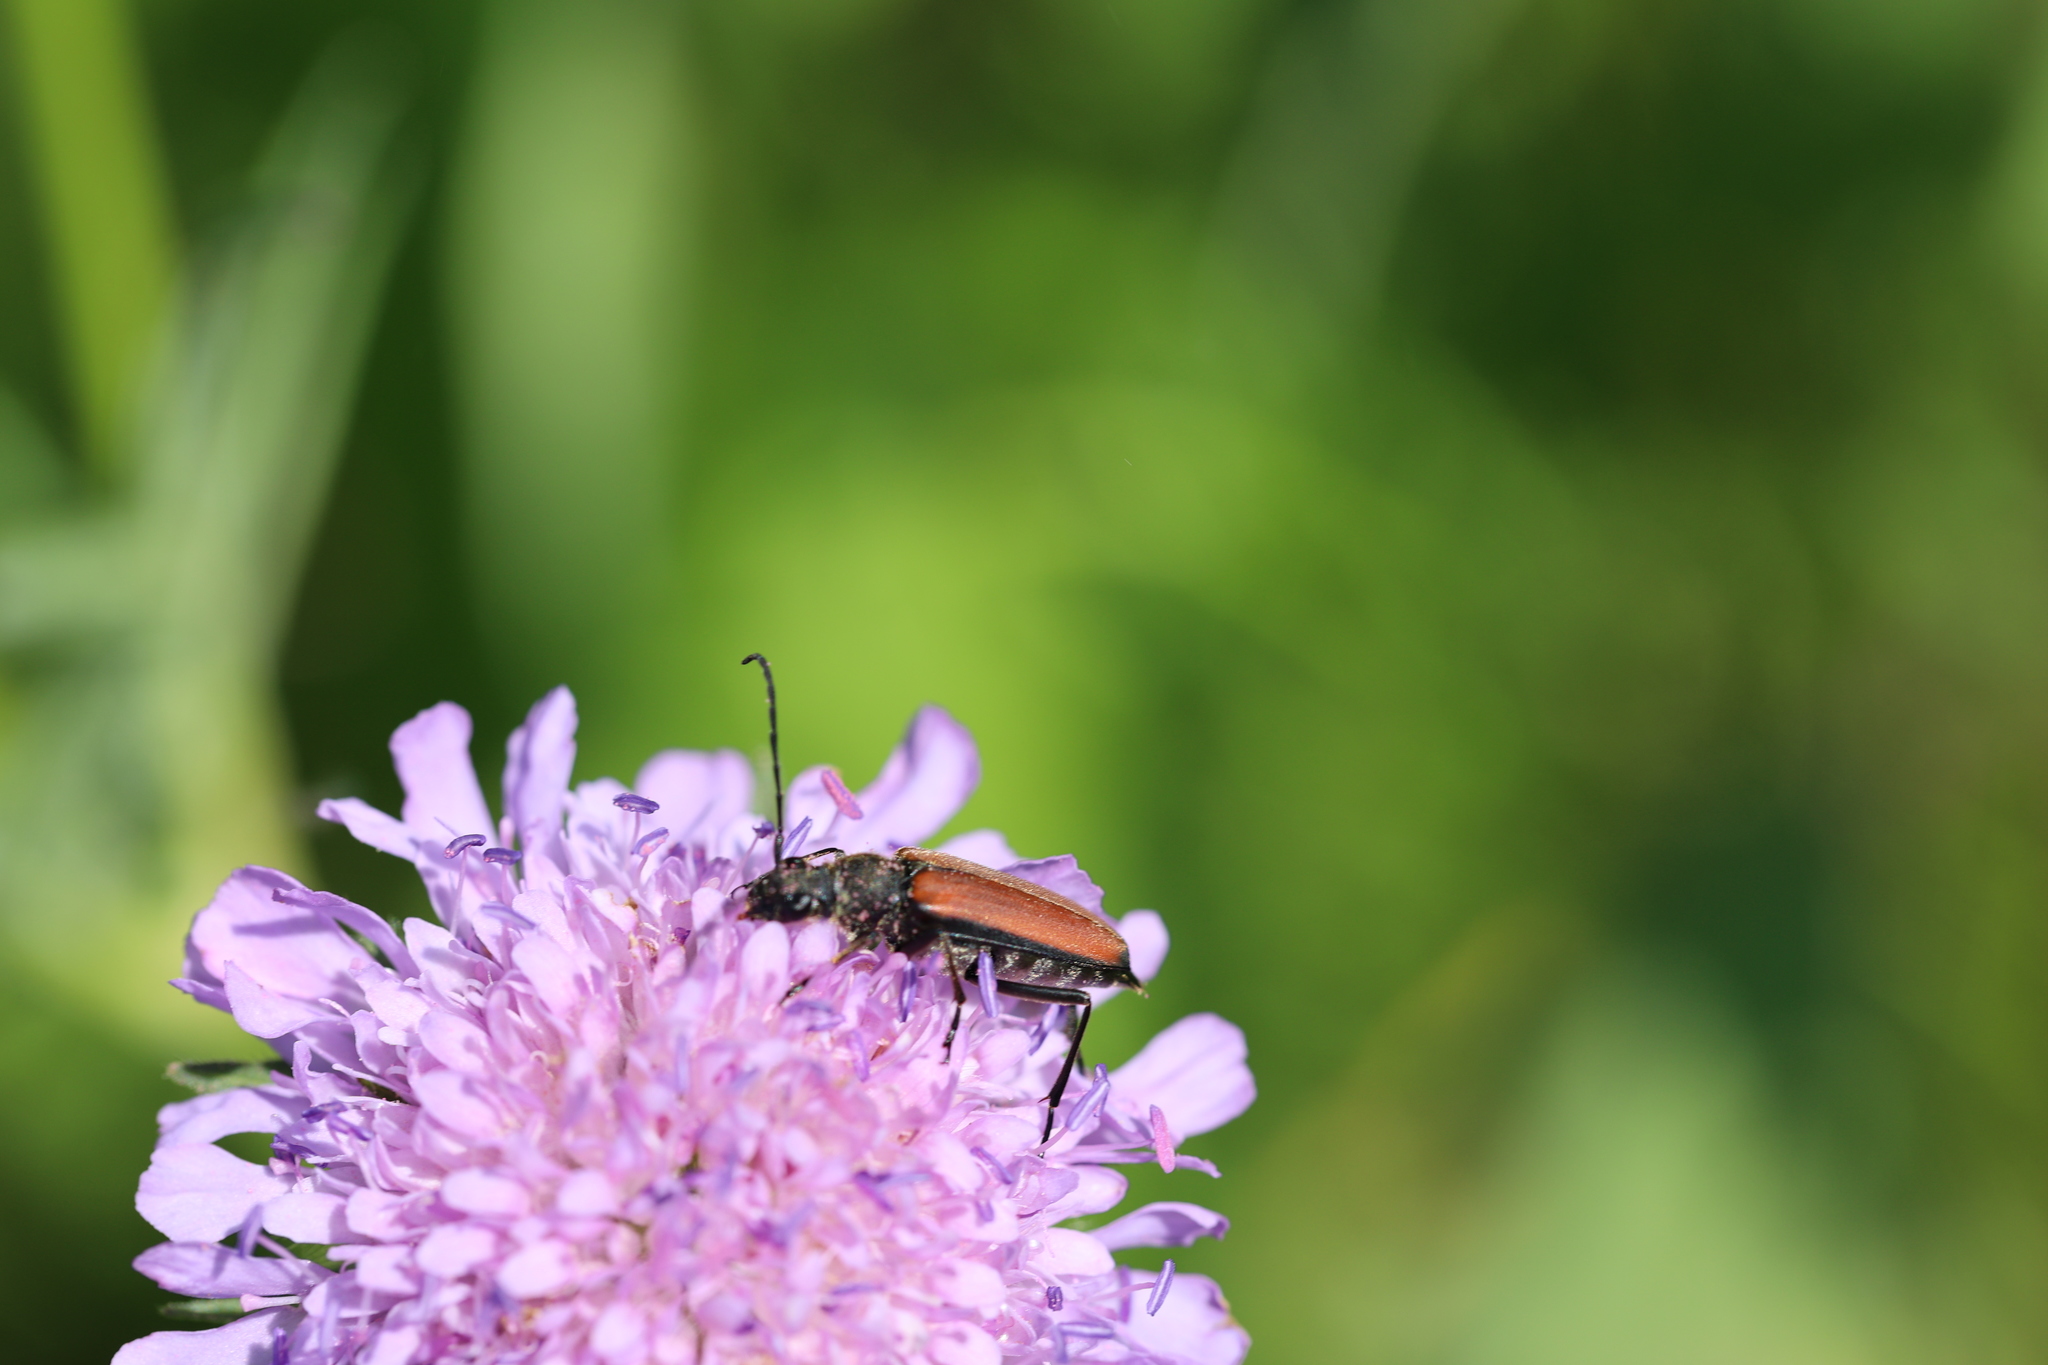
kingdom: Animalia
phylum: Arthropoda
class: Insecta
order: Coleoptera
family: Cerambycidae
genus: Anastrangalia
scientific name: Anastrangalia dubia
